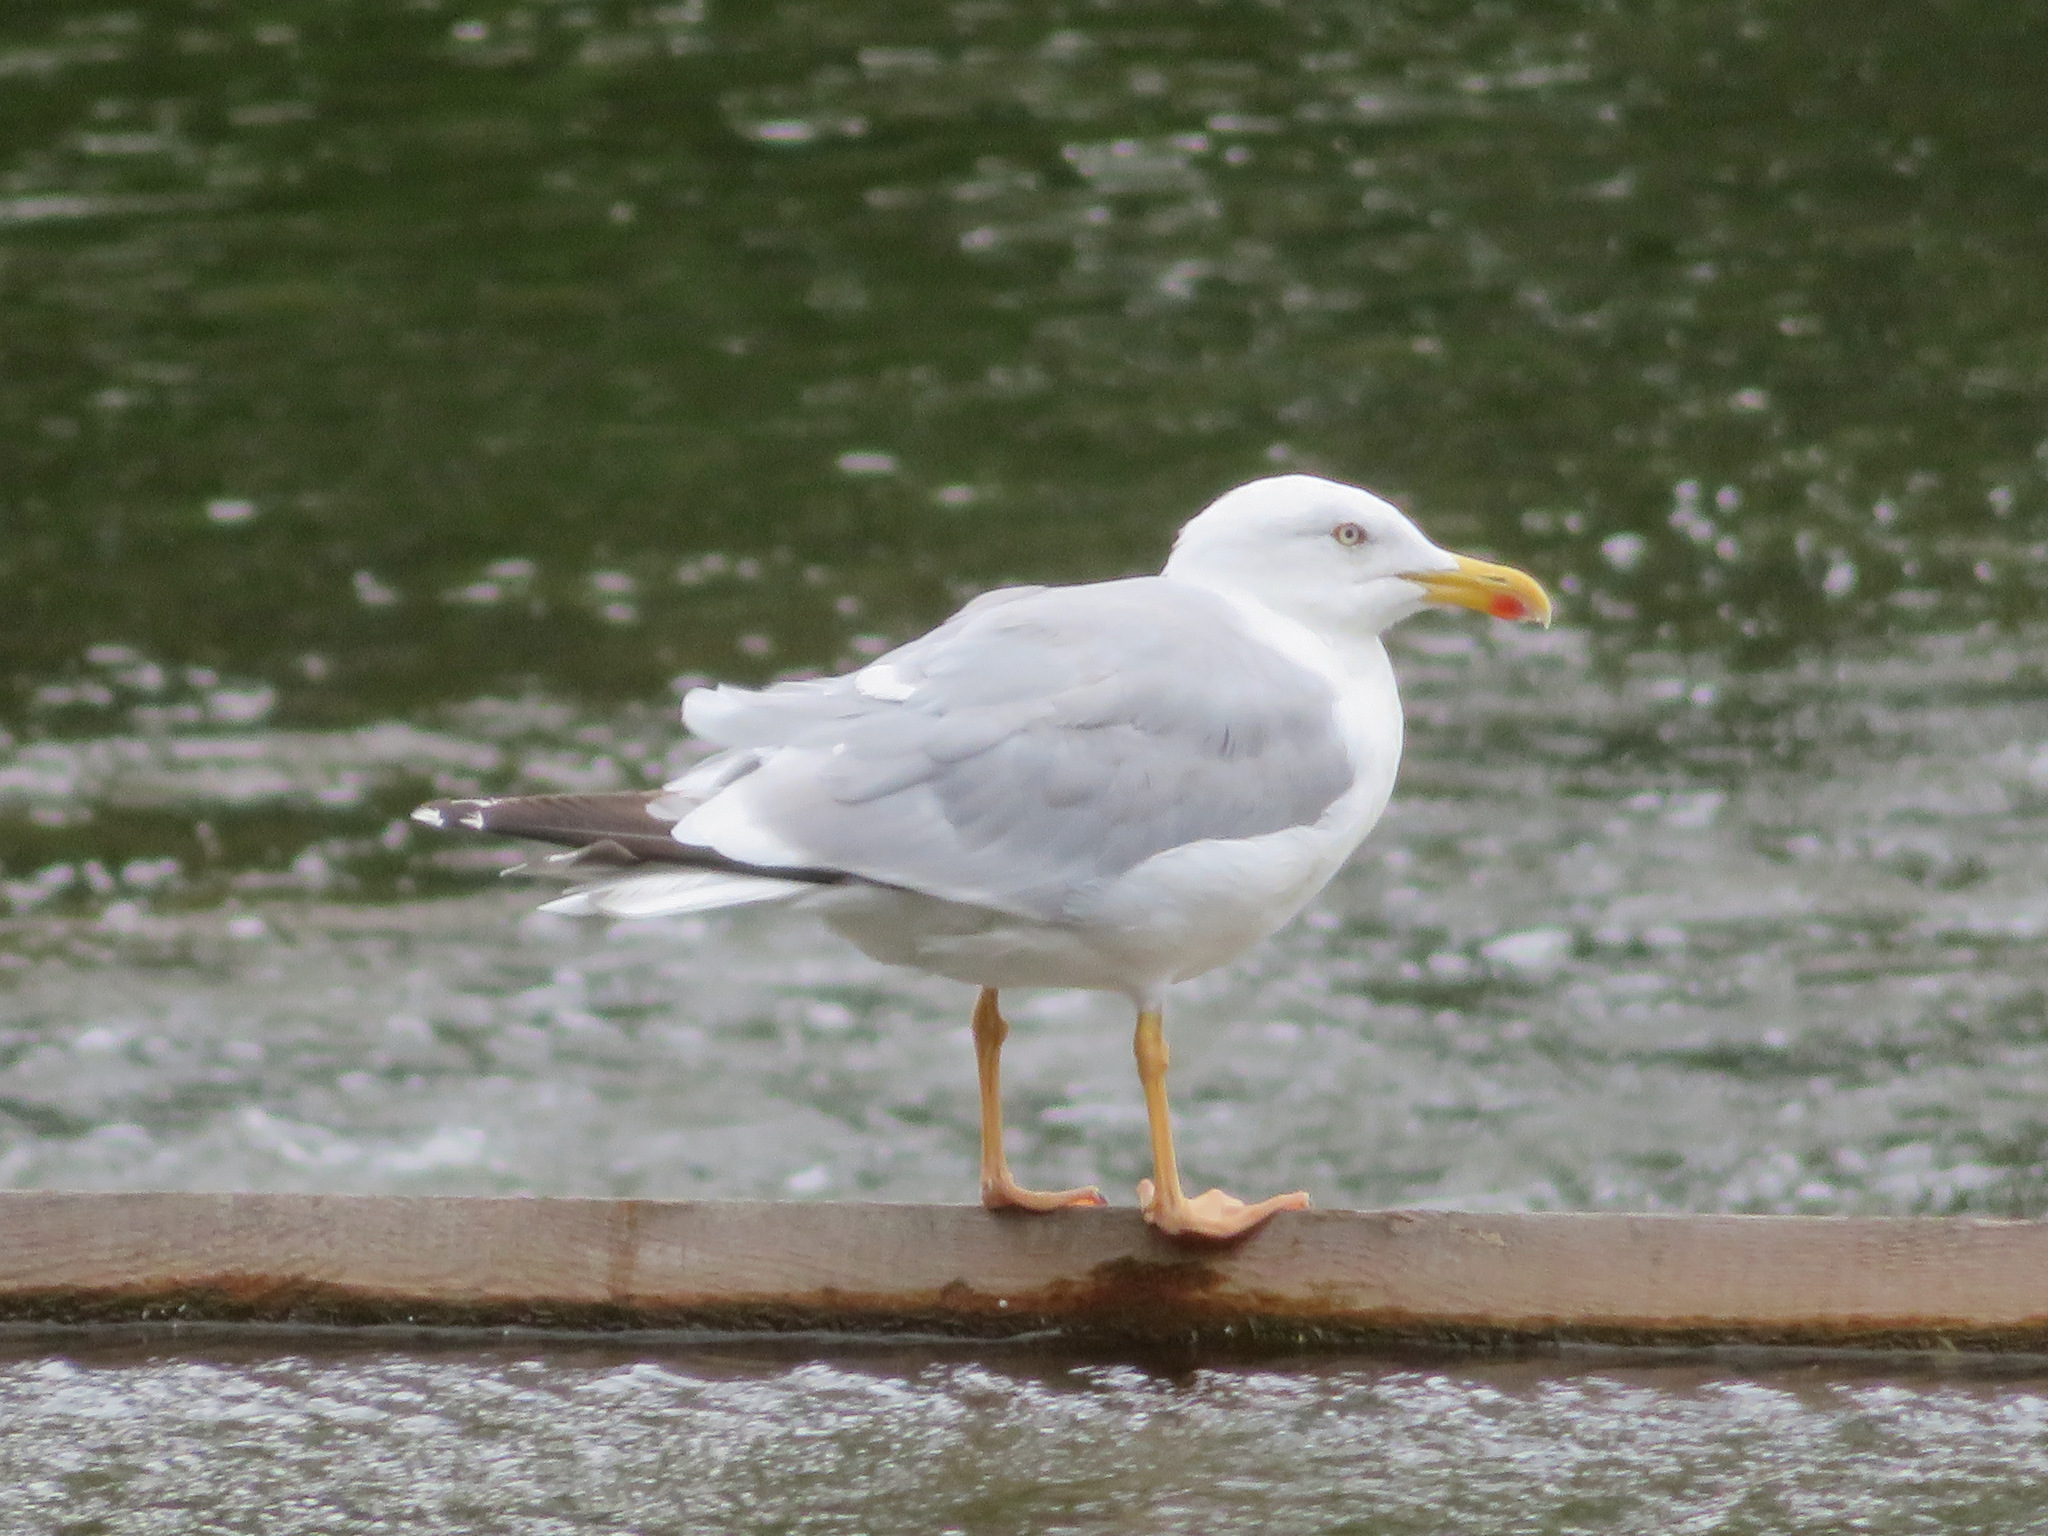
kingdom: Animalia
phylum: Chordata
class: Aves
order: Charadriiformes
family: Laridae
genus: Larus
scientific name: Larus michahellis
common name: Yellow-legged gull
